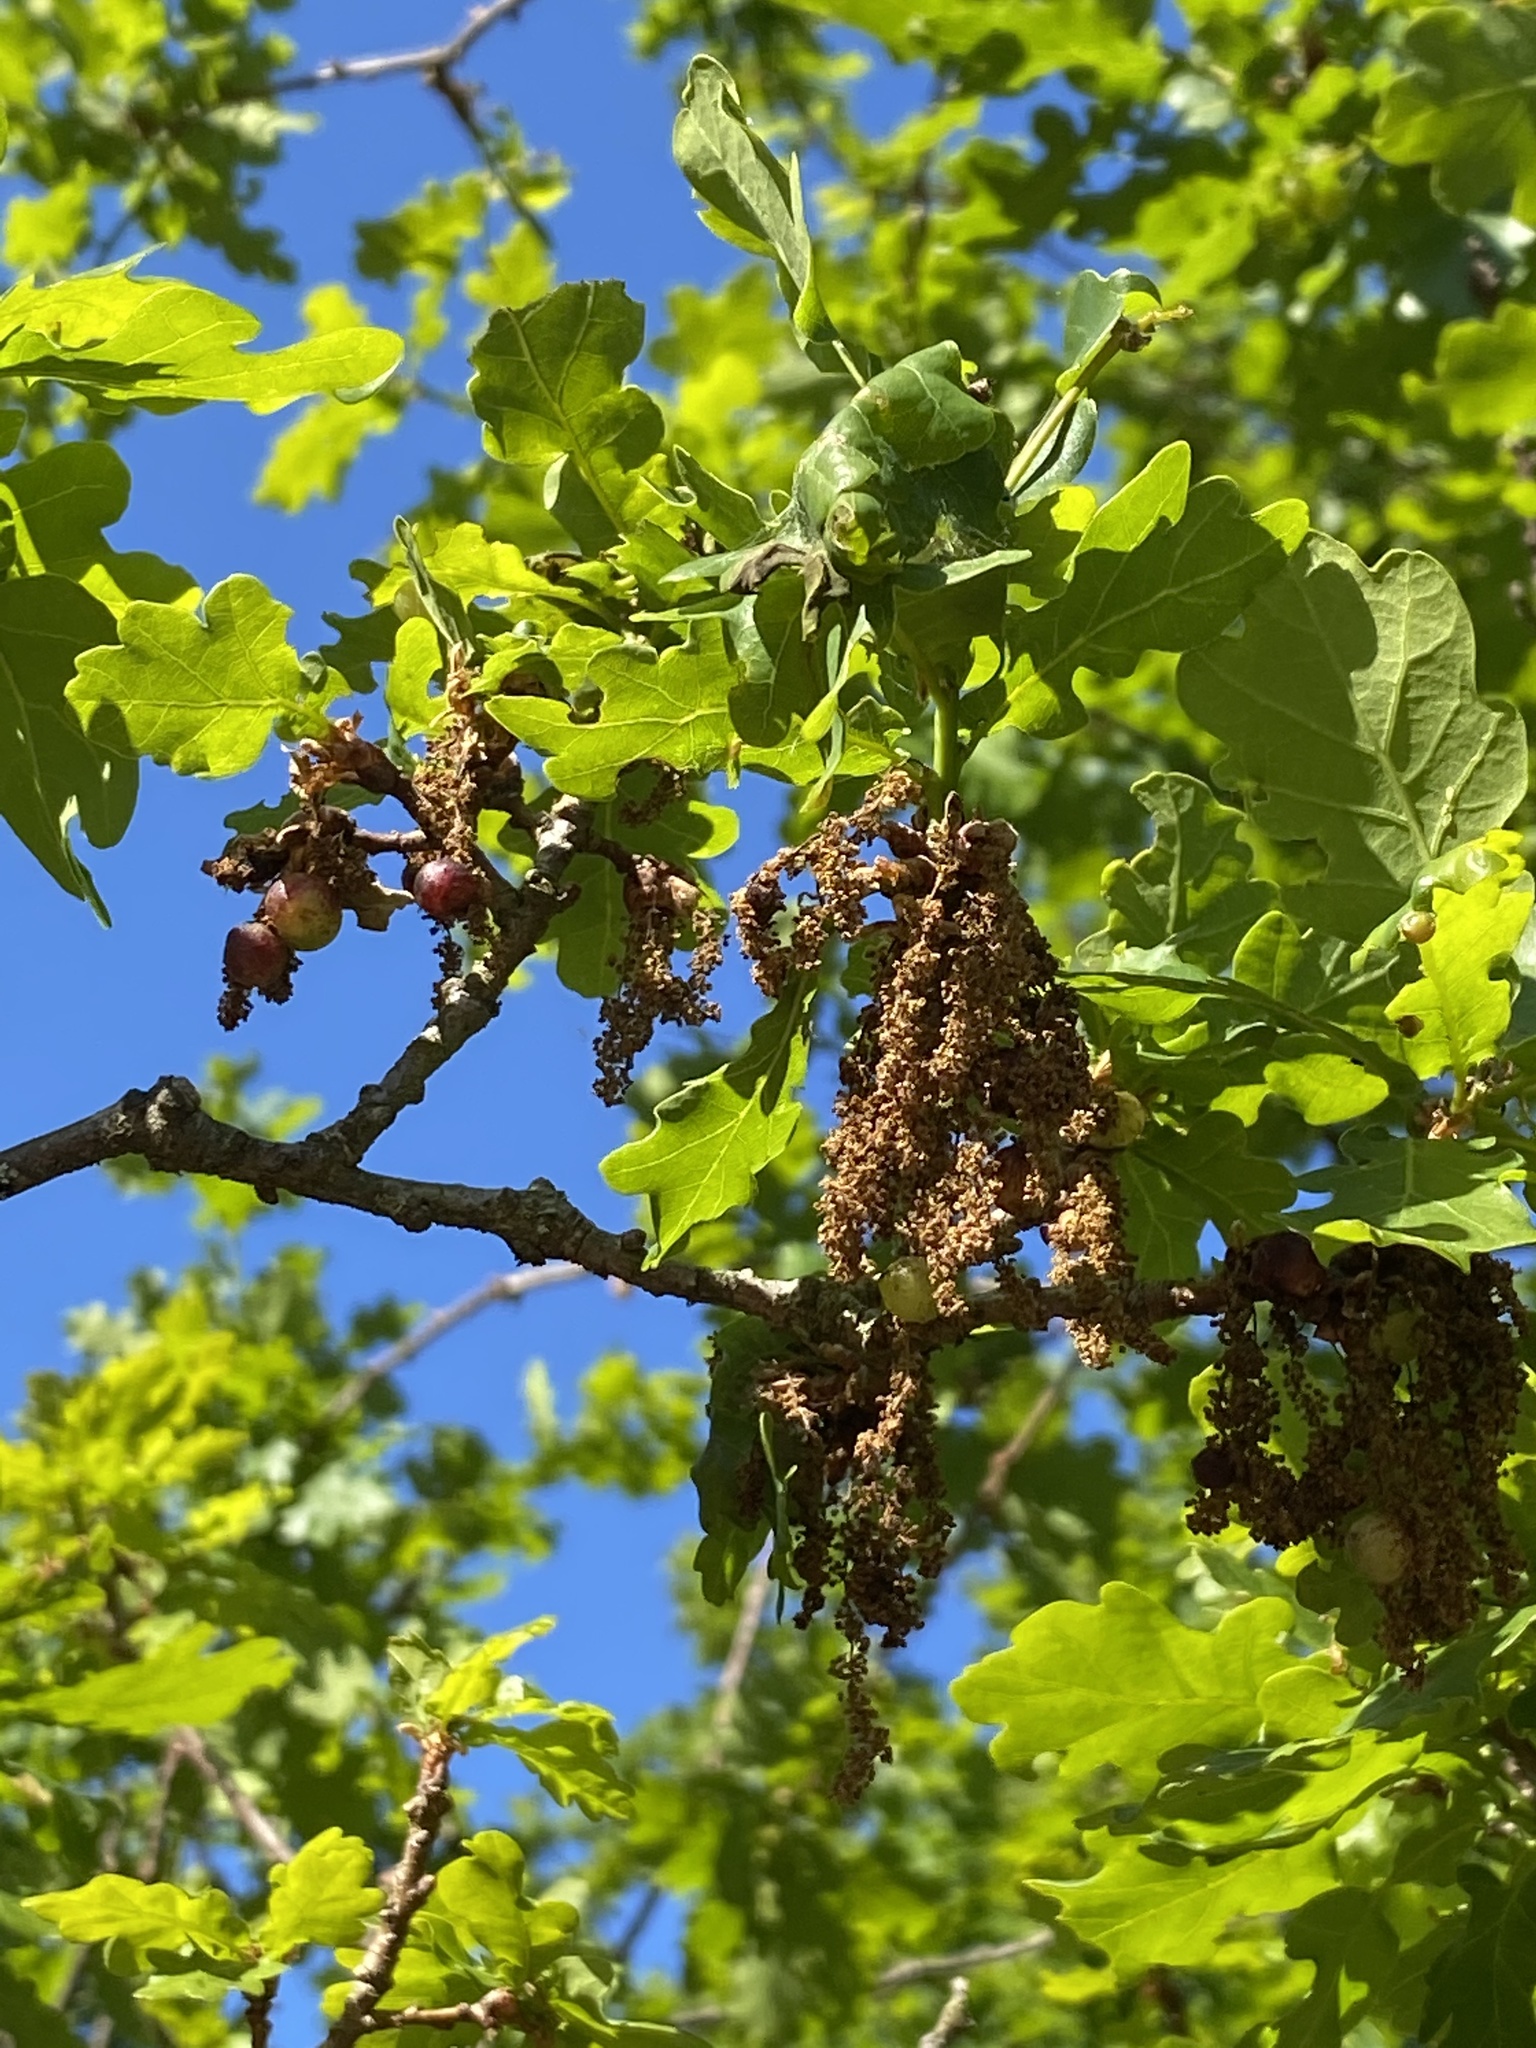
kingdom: Plantae
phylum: Tracheophyta
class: Magnoliopsida
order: Fagales
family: Fagaceae
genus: Quercus
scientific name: Quercus robur
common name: Pedunculate oak
